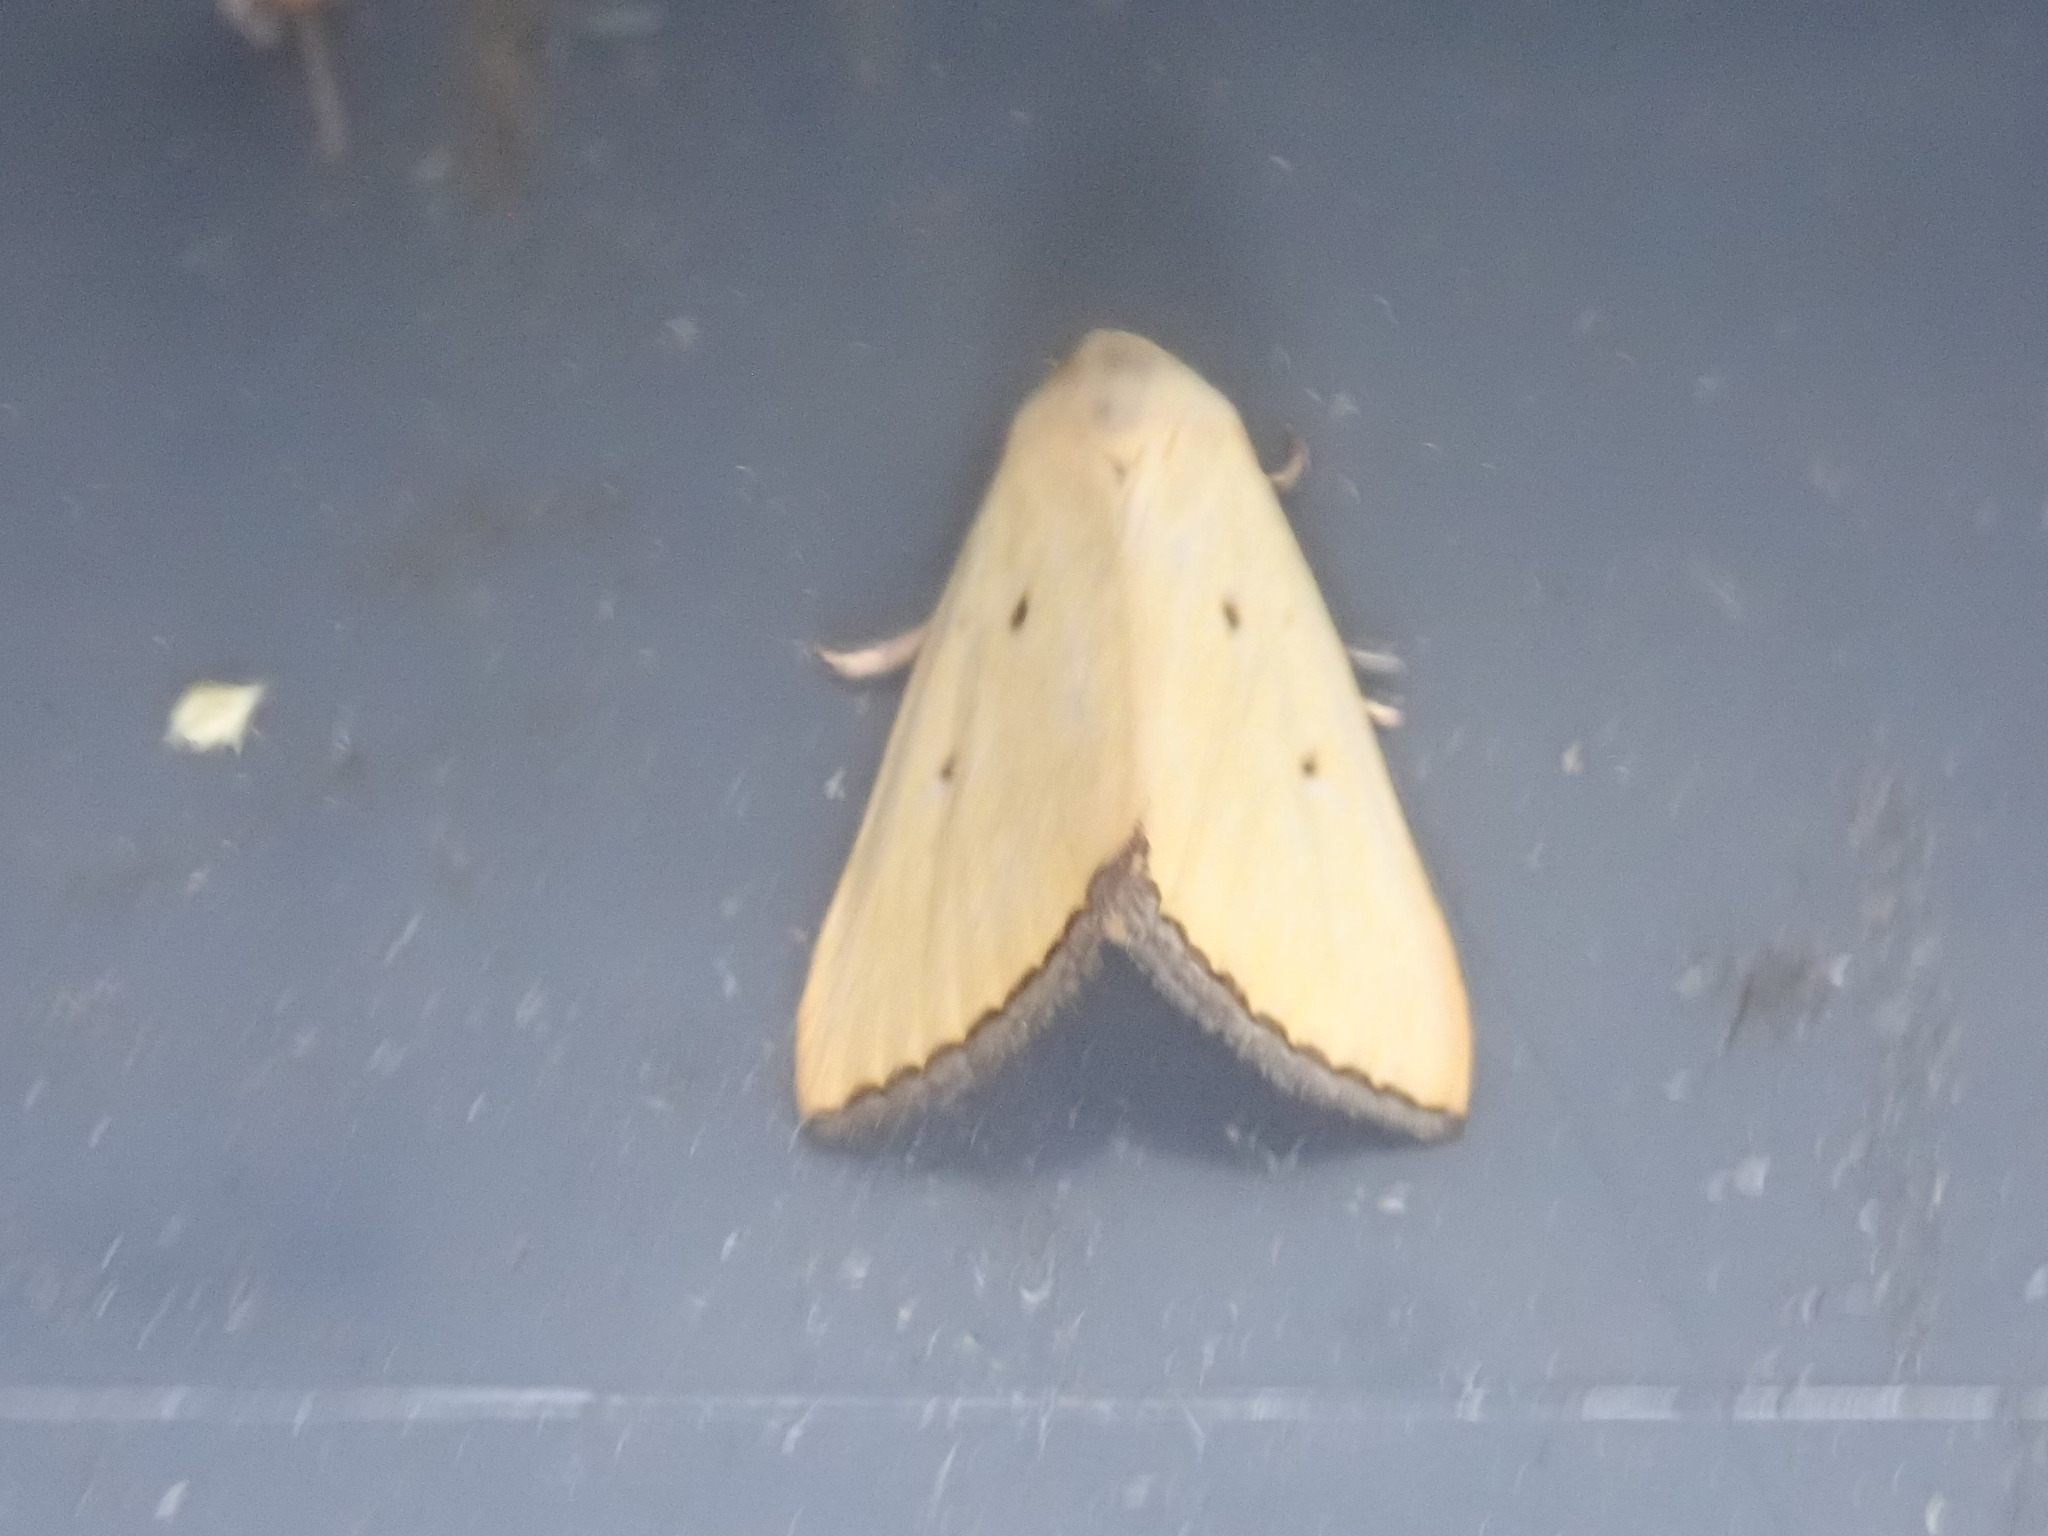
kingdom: Animalia
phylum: Arthropoda
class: Insecta
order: Lepidoptera
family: Noctuidae
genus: Marimatha
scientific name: Marimatha nigrofimbria
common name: Black-bordered lemon moth
